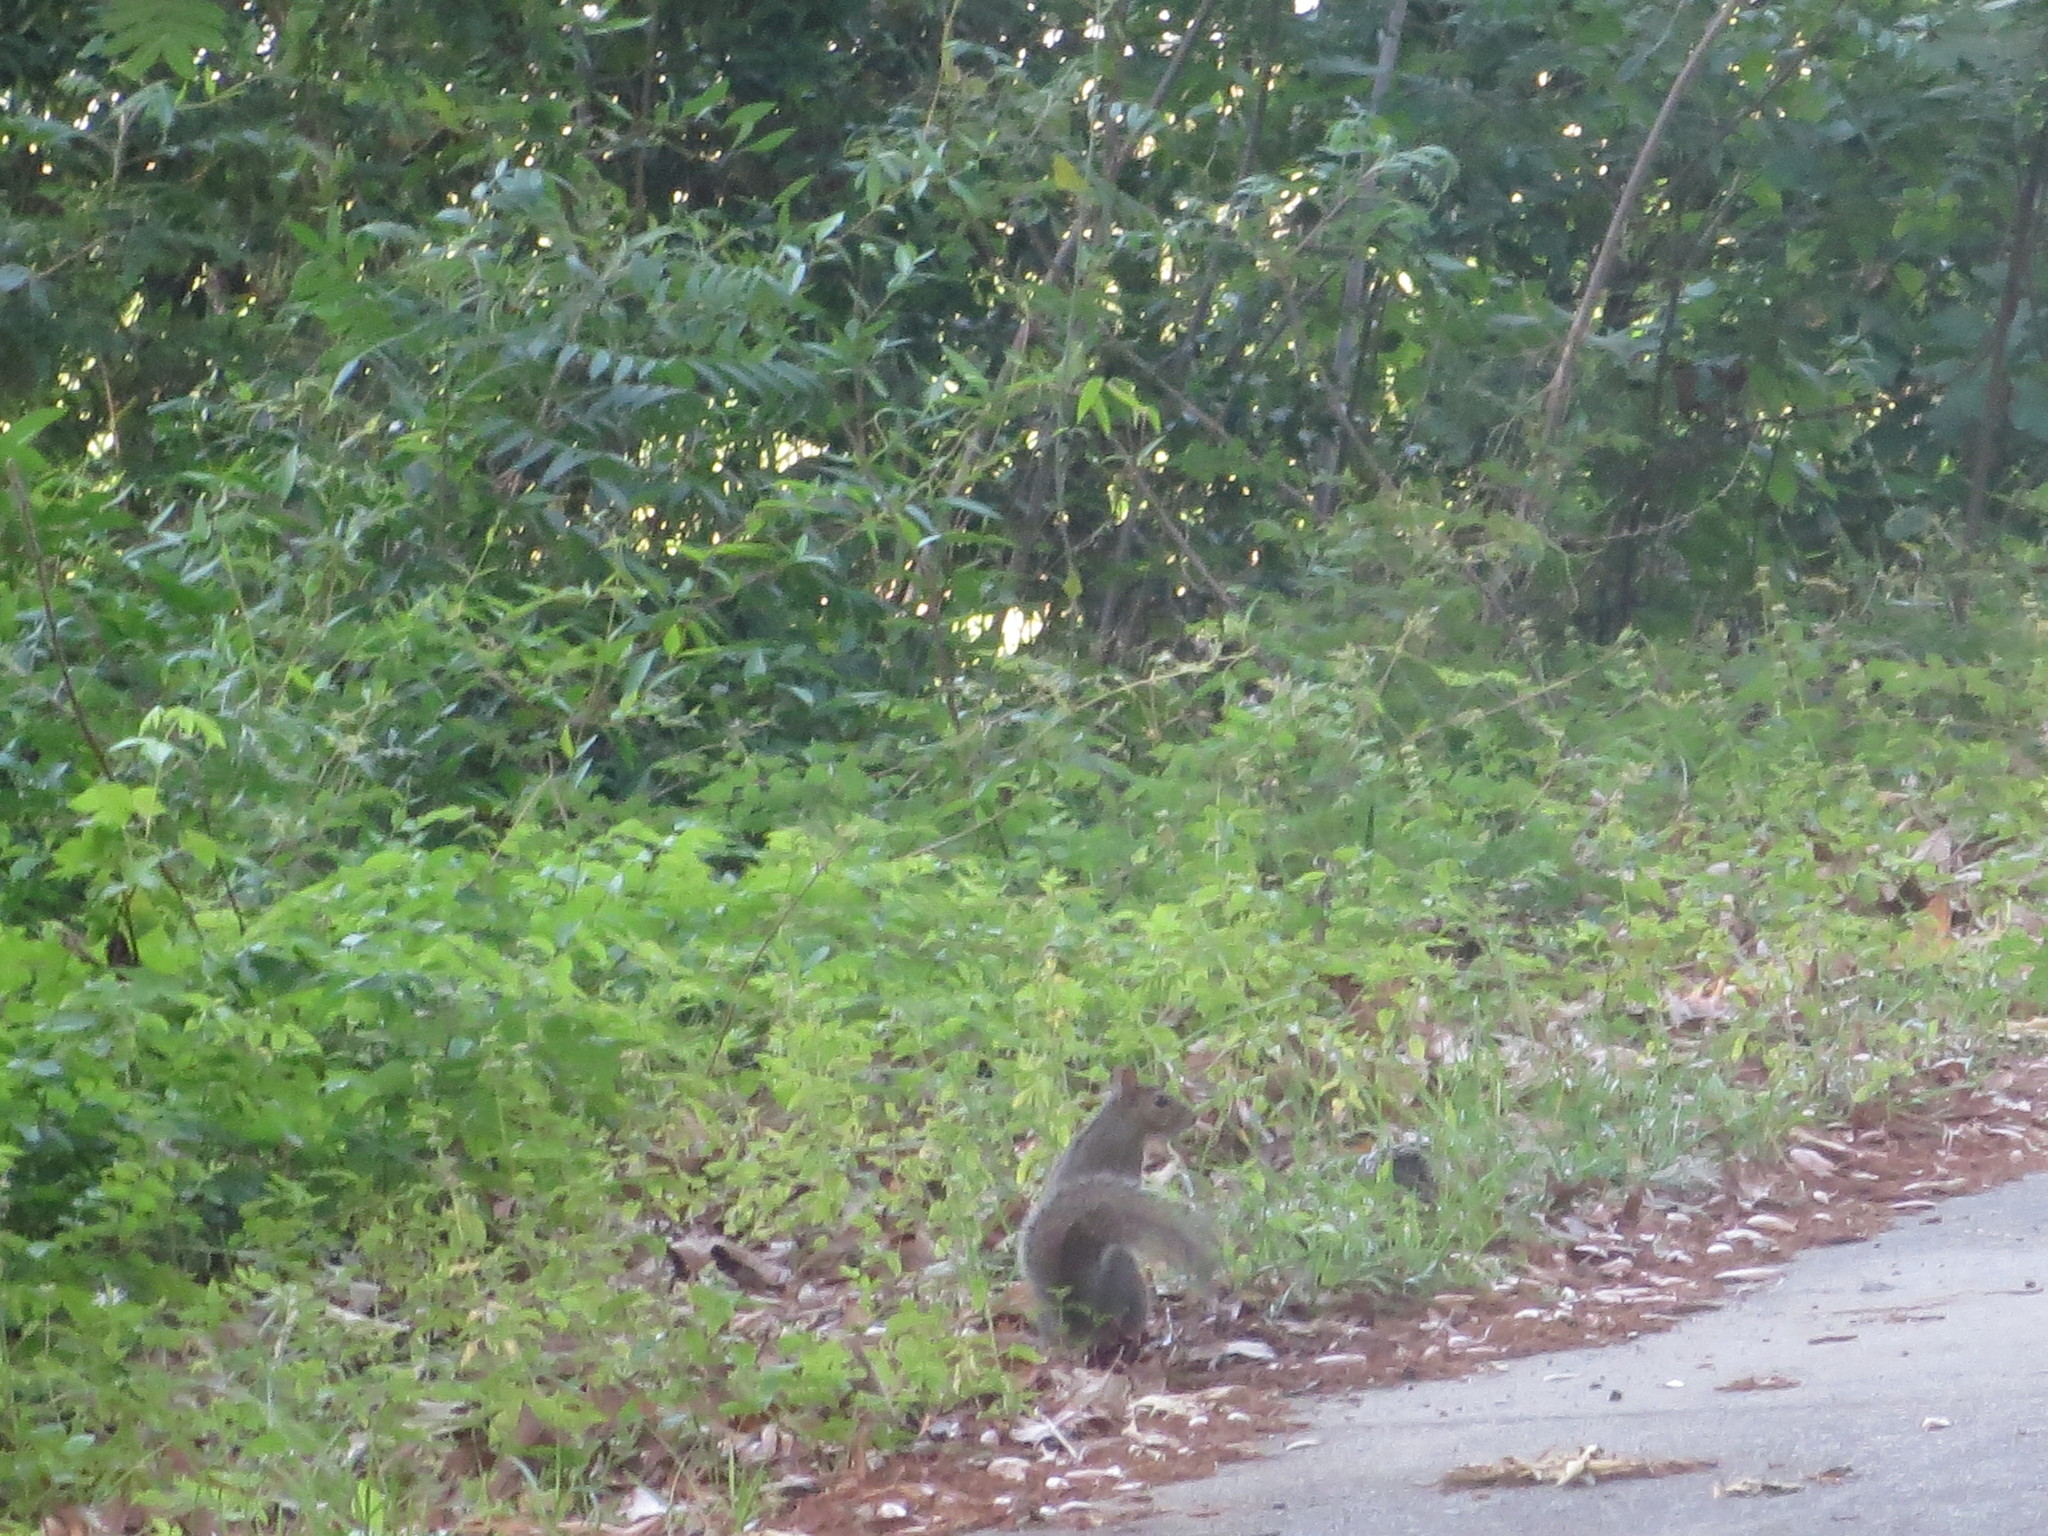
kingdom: Animalia
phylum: Chordata
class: Mammalia
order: Rodentia
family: Sciuridae
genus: Sciurus
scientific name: Sciurus carolinensis
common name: Eastern gray squirrel
